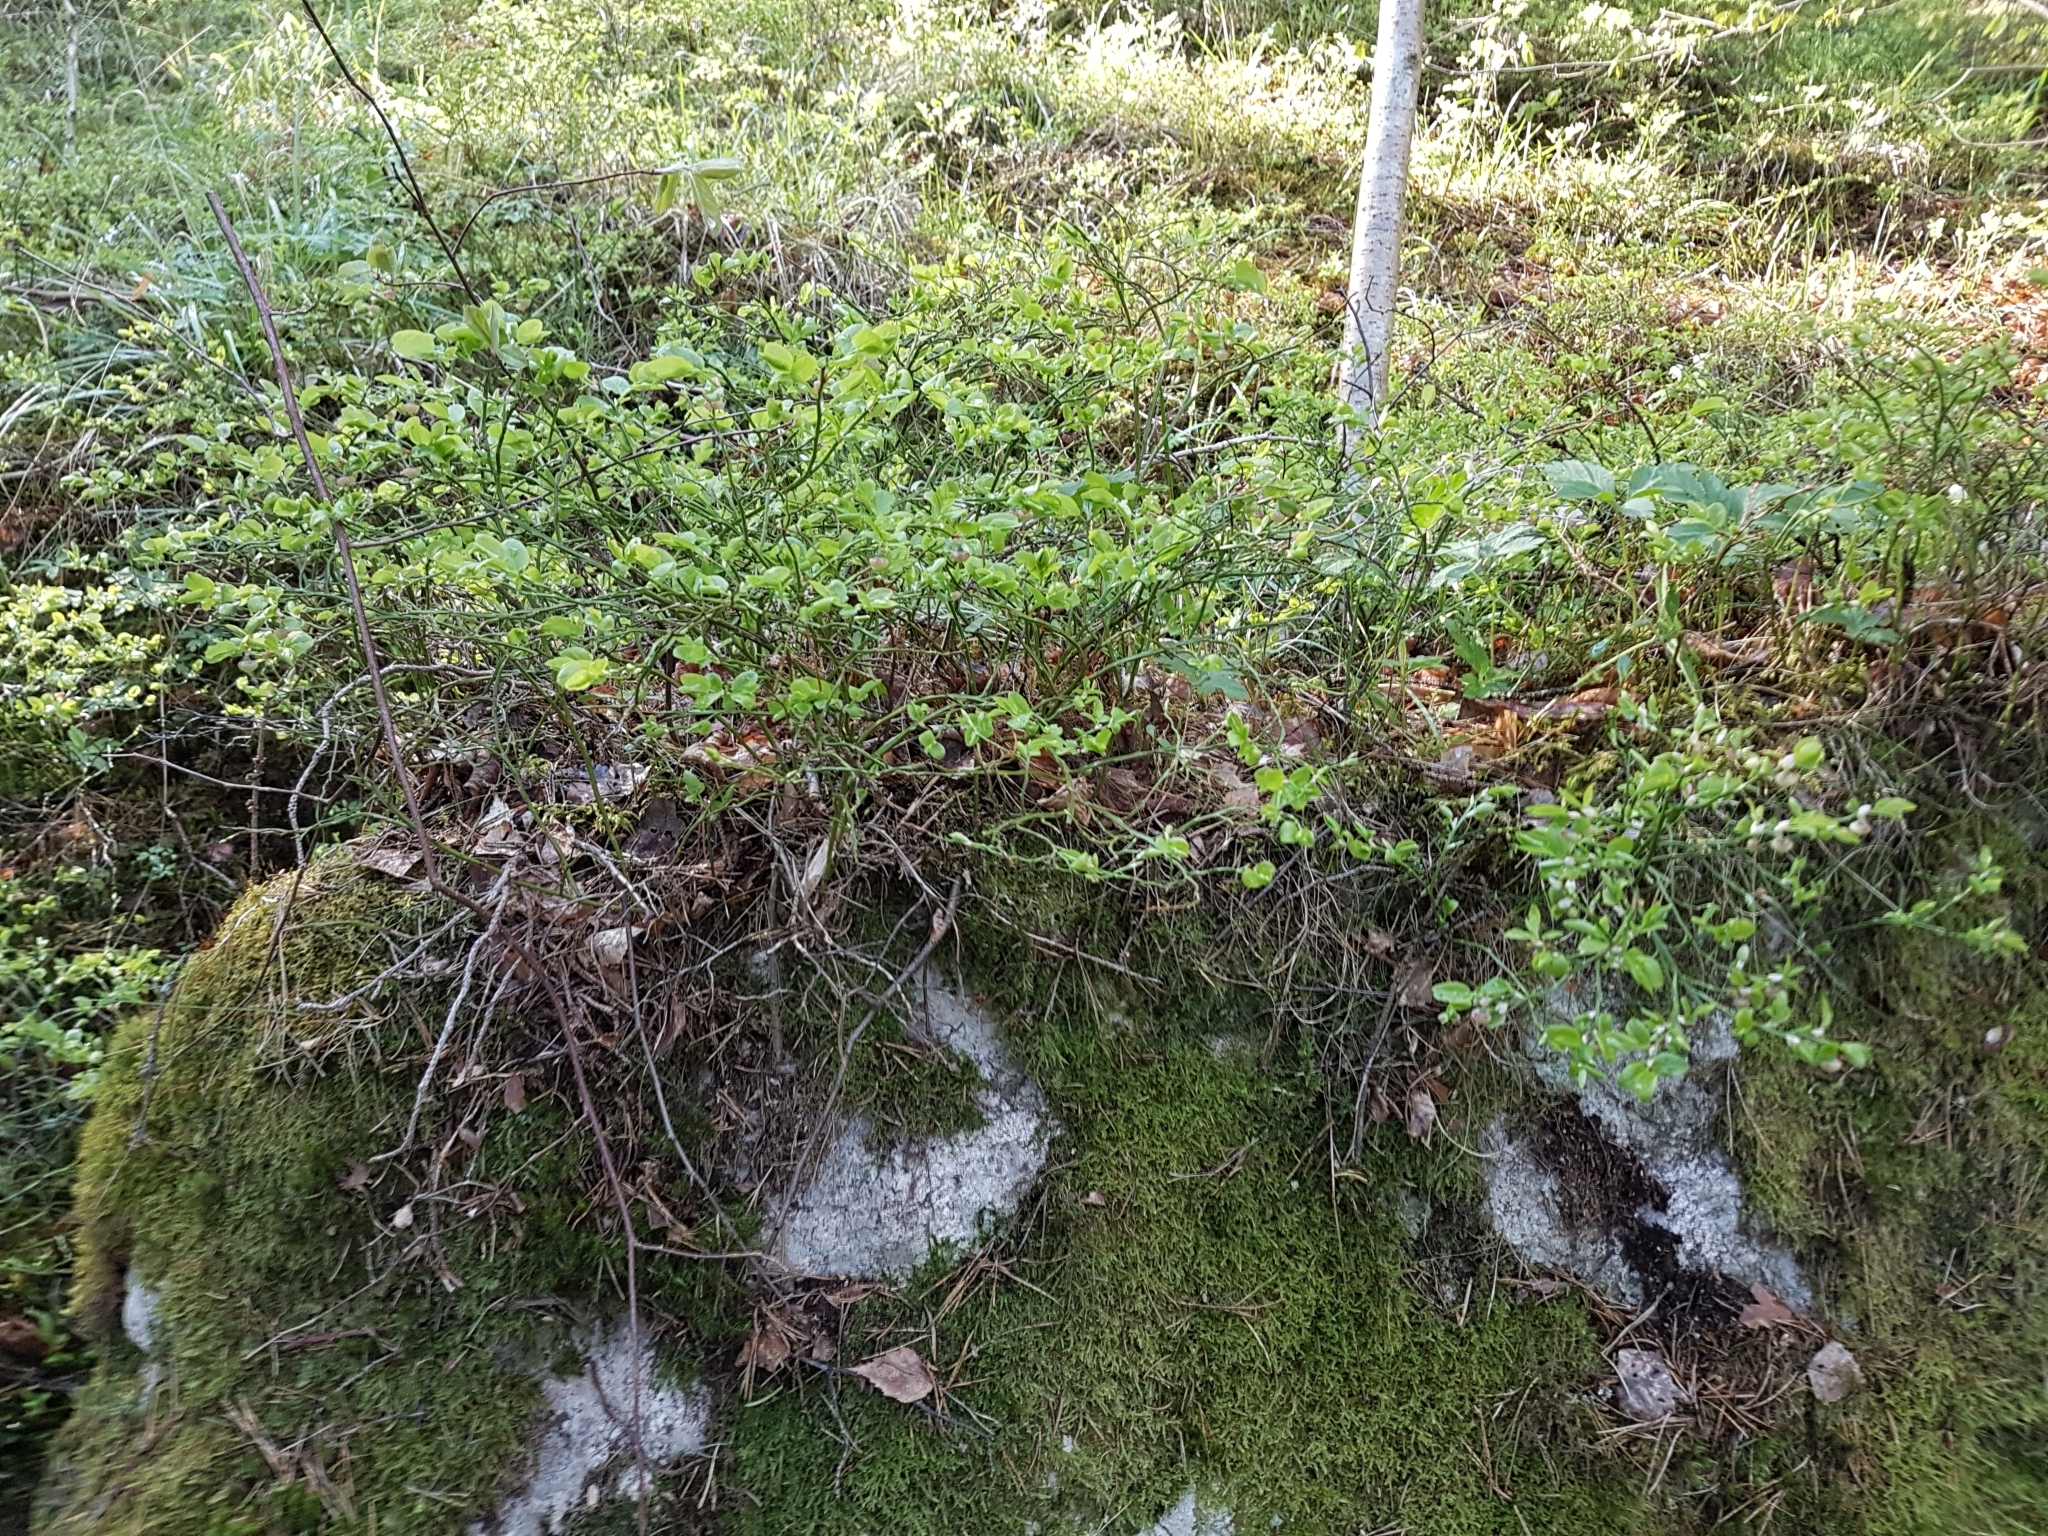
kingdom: Plantae
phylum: Tracheophyta
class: Magnoliopsida
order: Ericales
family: Ericaceae
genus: Vaccinium
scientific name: Vaccinium myrtillus
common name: Bilberry
